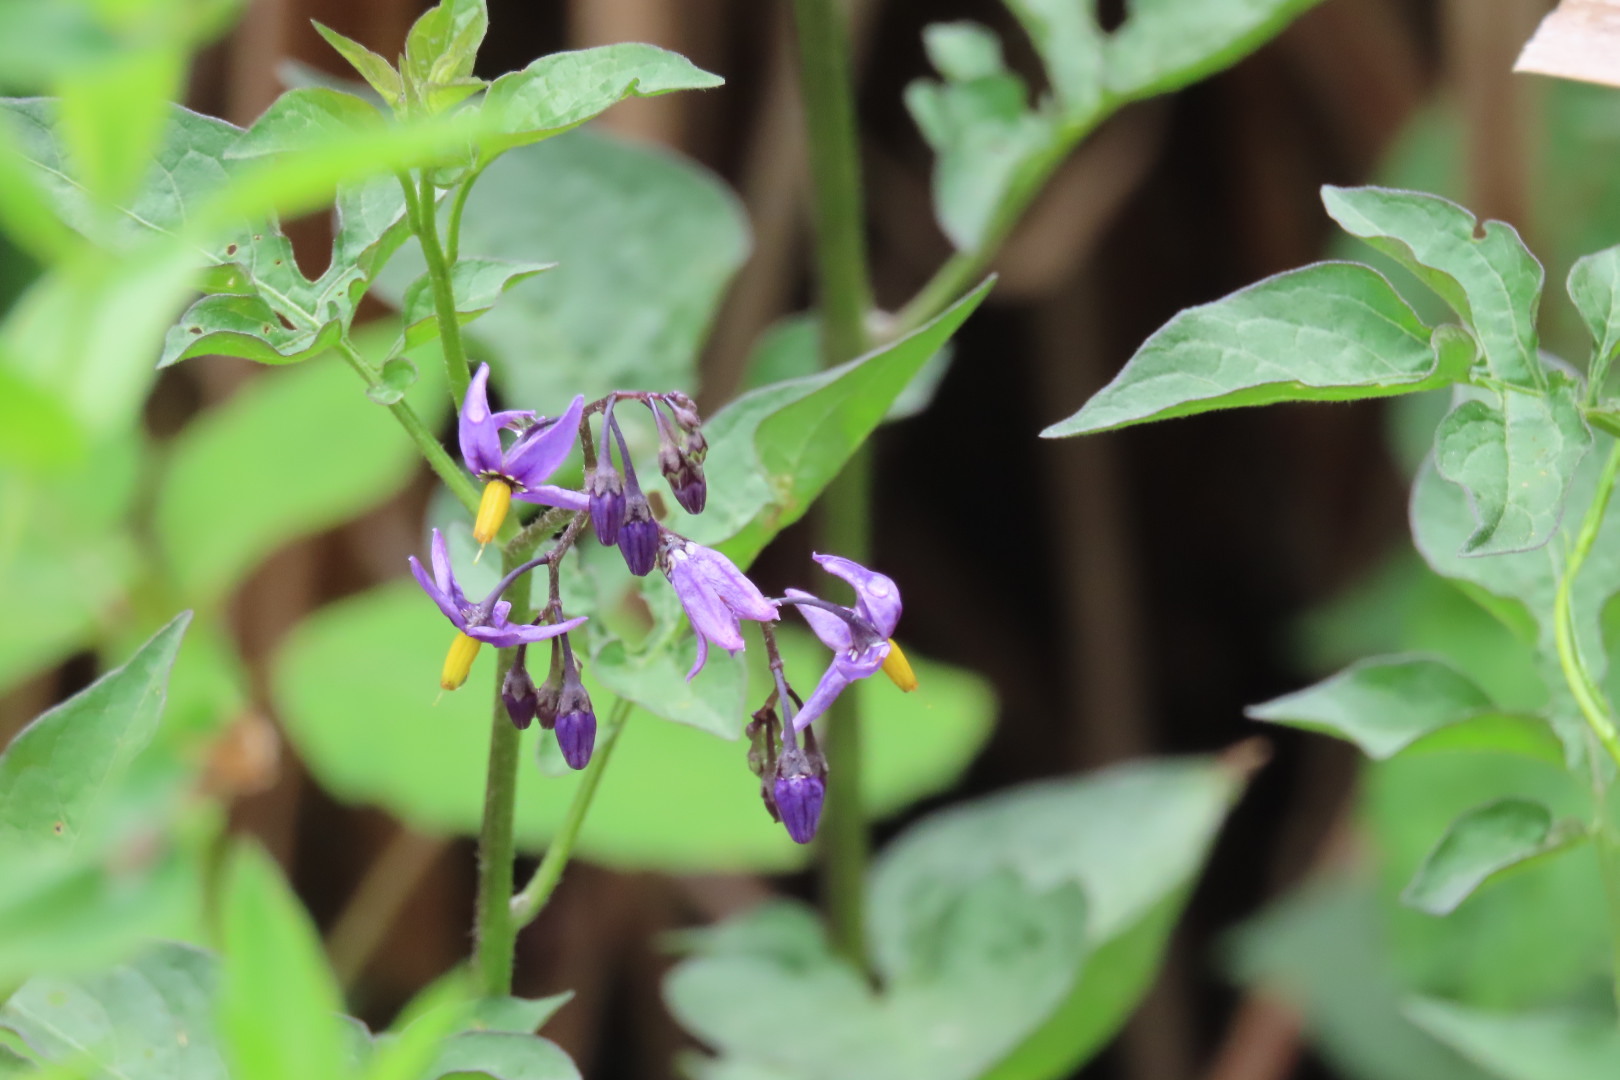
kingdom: Plantae
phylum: Tracheophyta
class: Magnoliopsida
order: Solanales
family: Solanaceae
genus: Solanum
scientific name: Solanum dulcamara
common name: Climbing nightshade
